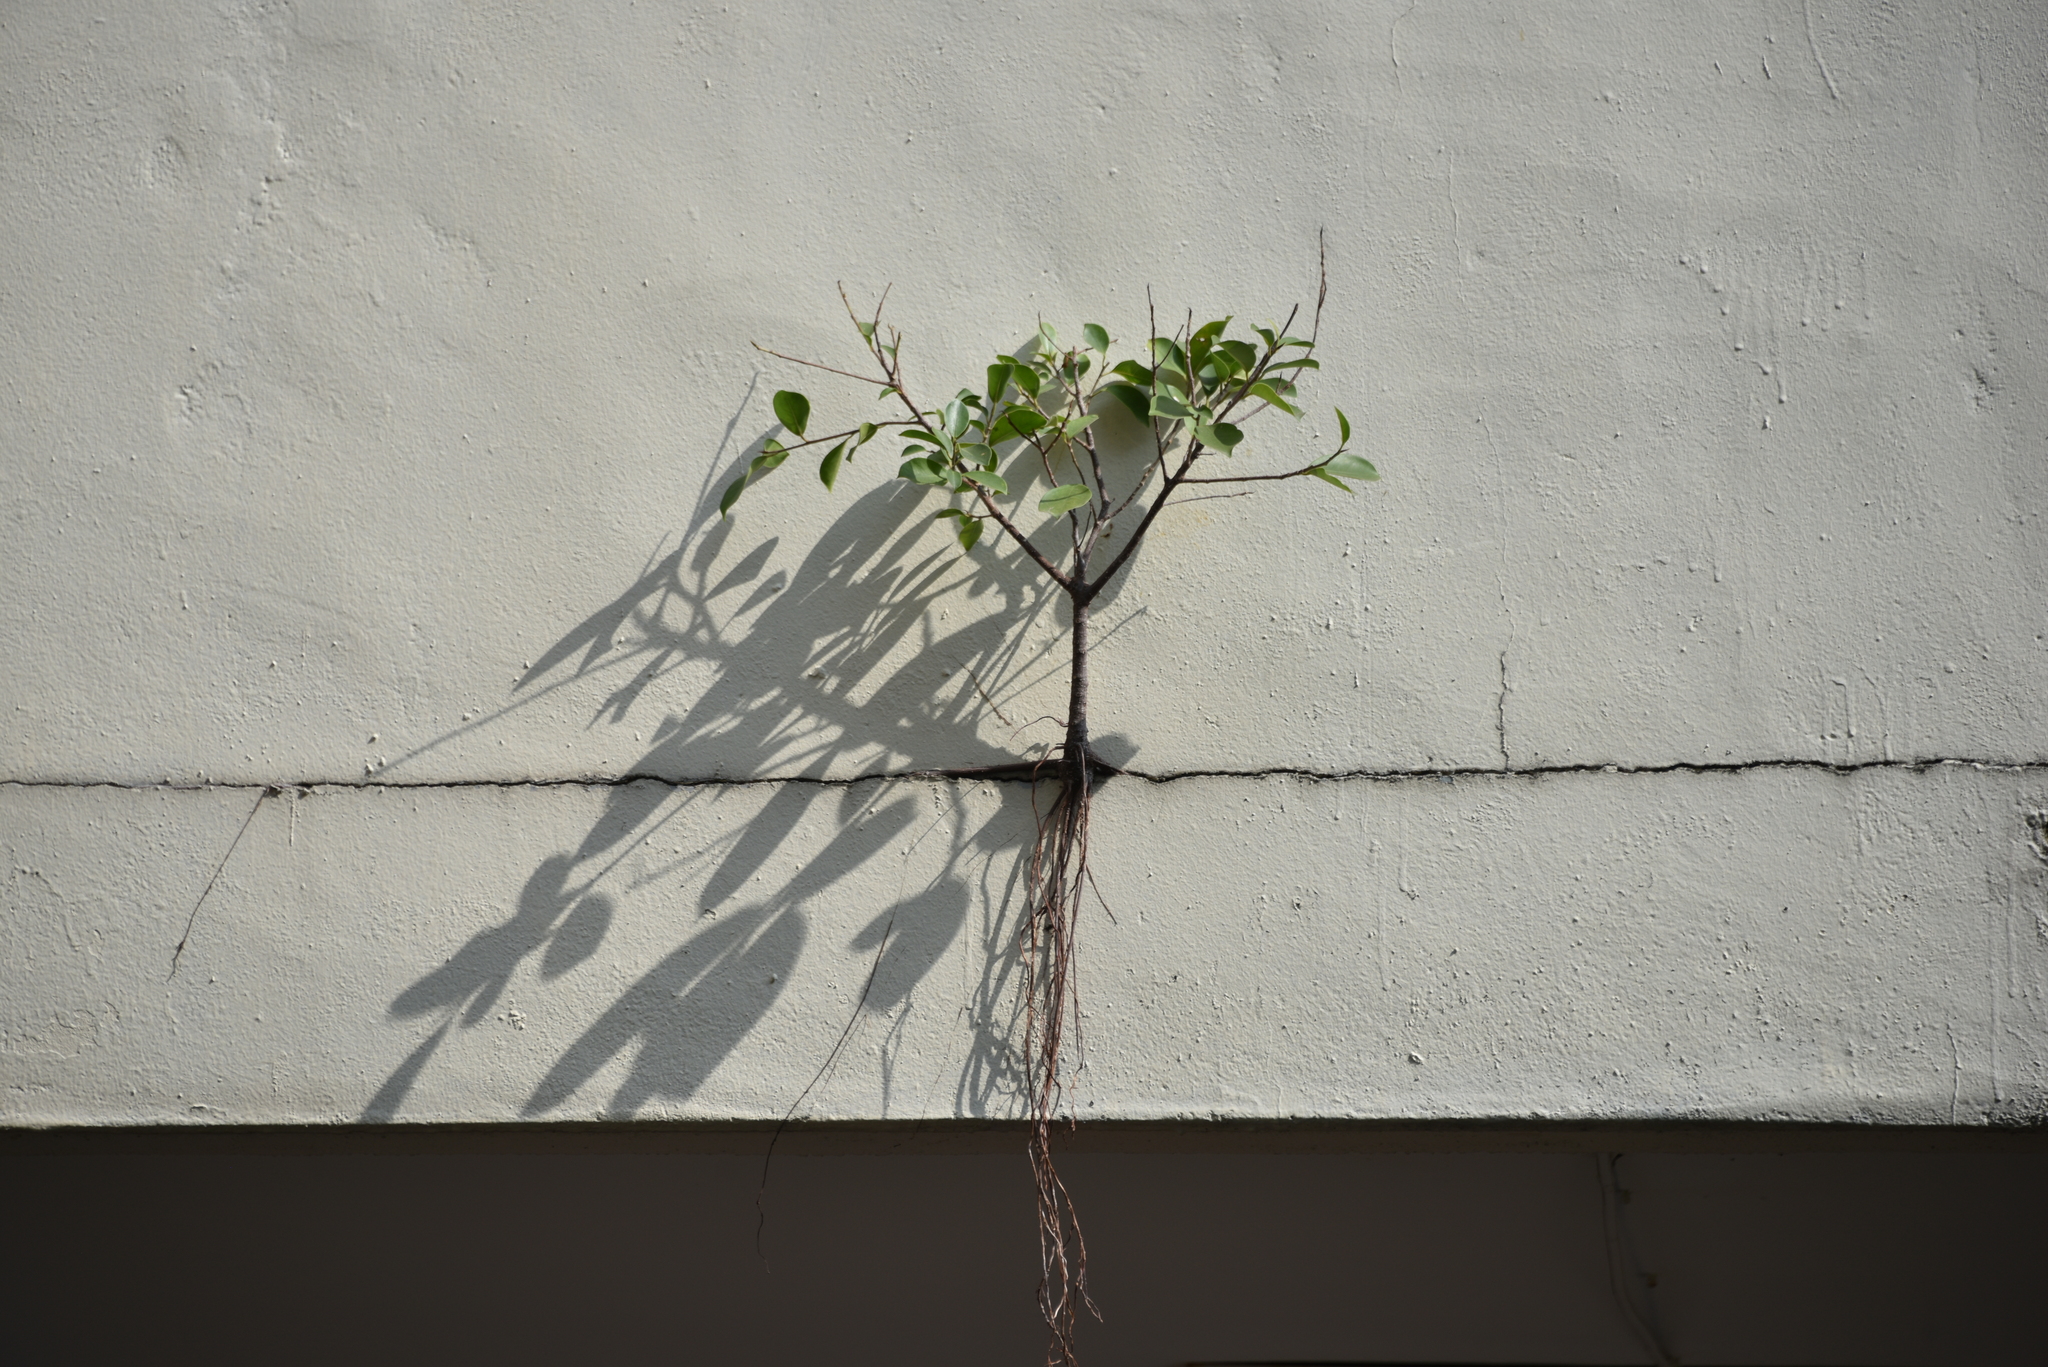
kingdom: Plantae
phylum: Tracheophyta
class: Magnoliopsida
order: Rosales
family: Moraceae
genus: Ficus
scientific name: Ficus microcarpa
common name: Chinese banyan
